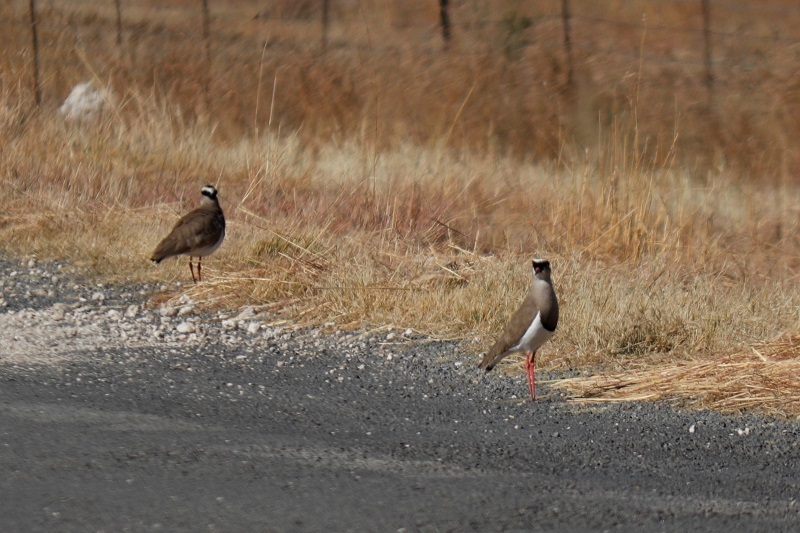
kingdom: Animalia
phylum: Chordata
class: Aves
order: Charadriiformes
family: Charadriidae
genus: Vanellus
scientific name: Vanellus coronatus
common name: Crowned lapwing
